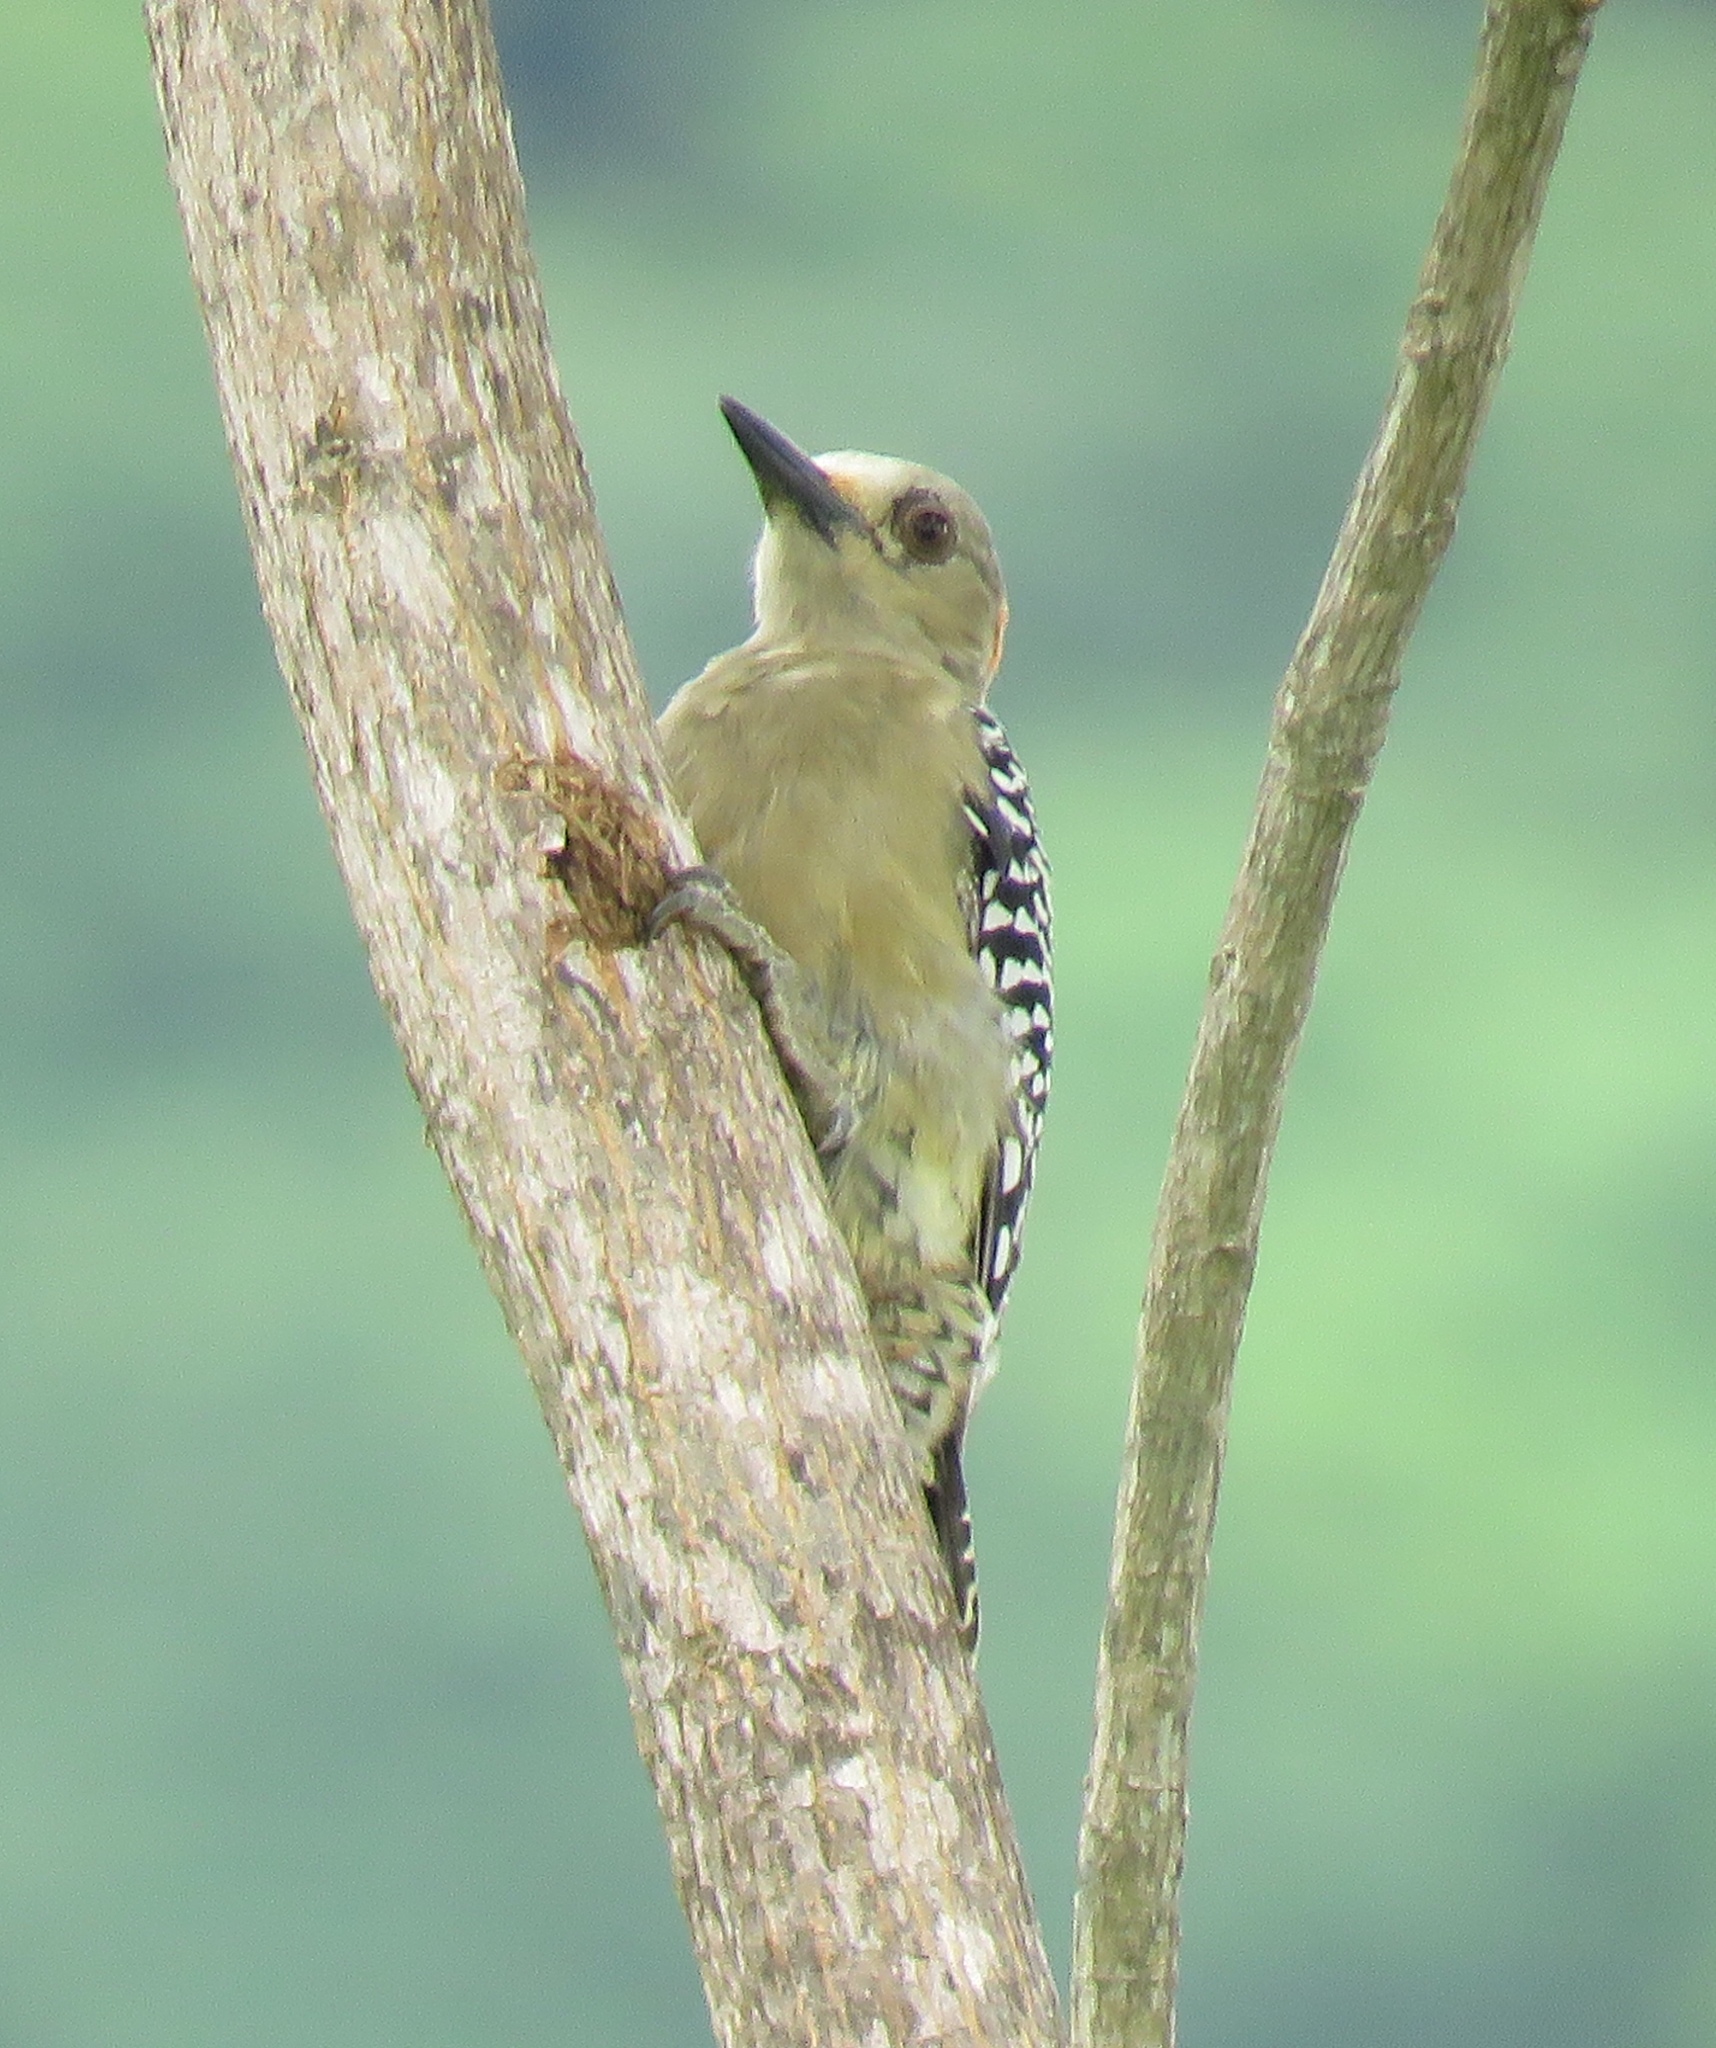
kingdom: Animalia
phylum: Chordata
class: Aves
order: Piciformes
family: Picidae
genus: Melanerpes
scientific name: Melanerpes rubricapillus
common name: Red-crowned woodpecker
